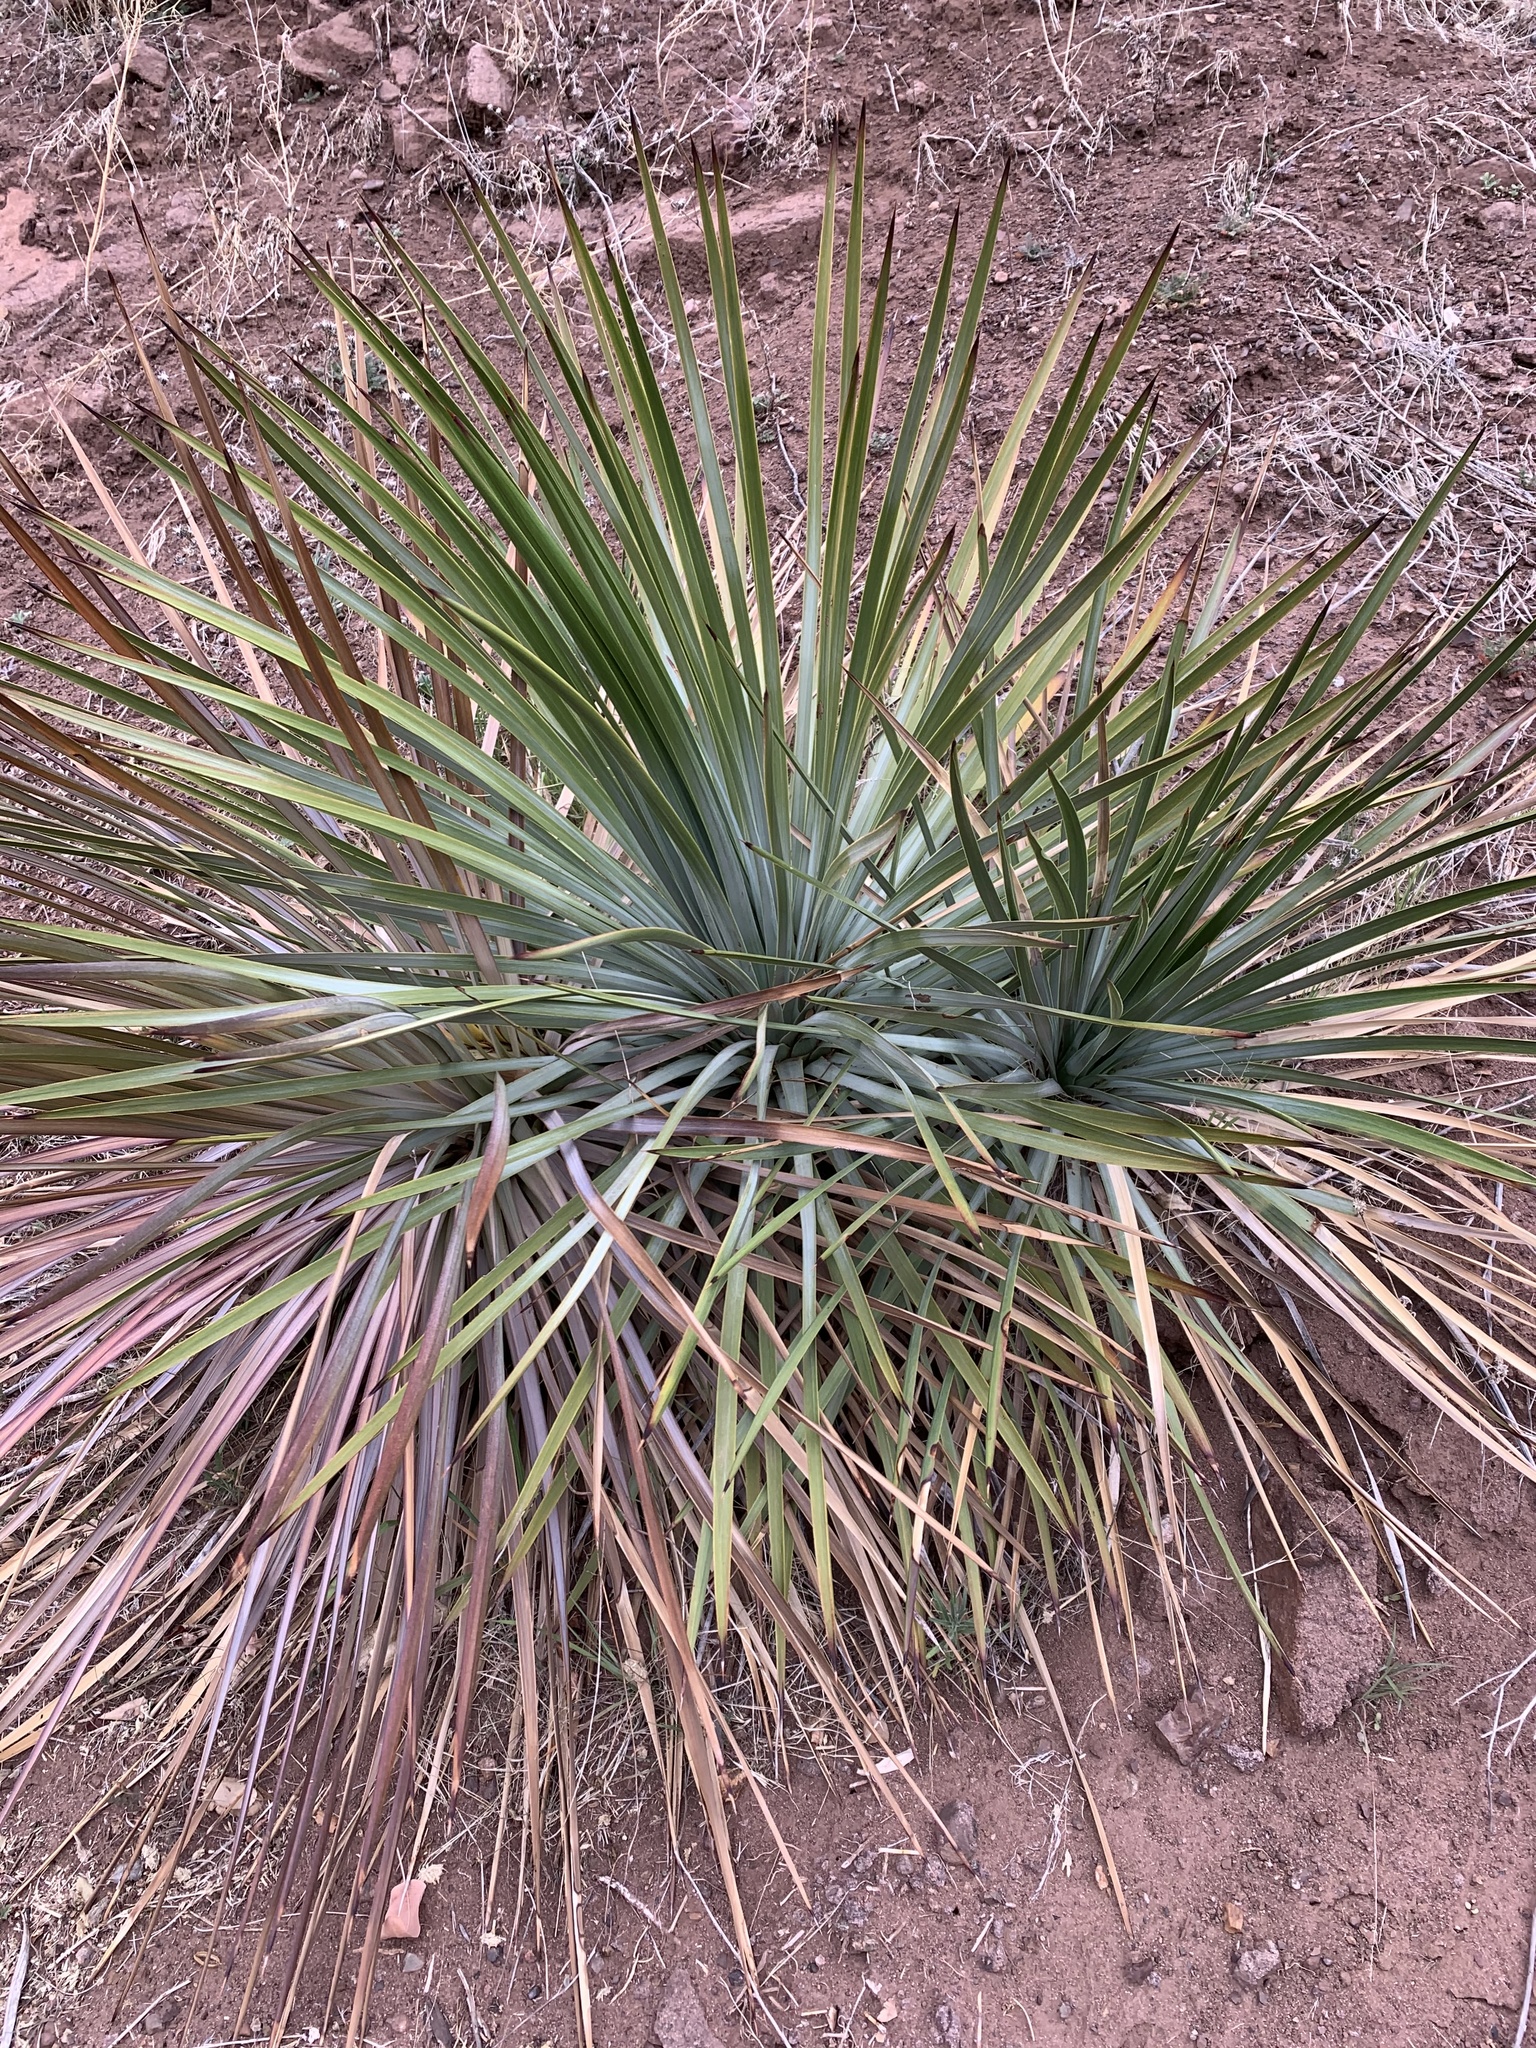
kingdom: Plantae
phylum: Tracheophyta
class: Liliopsida
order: Asparagales
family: Asparagaceae
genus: Hesperoyucca
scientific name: Hesperoyucca whipplei
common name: Our lord's-candle
